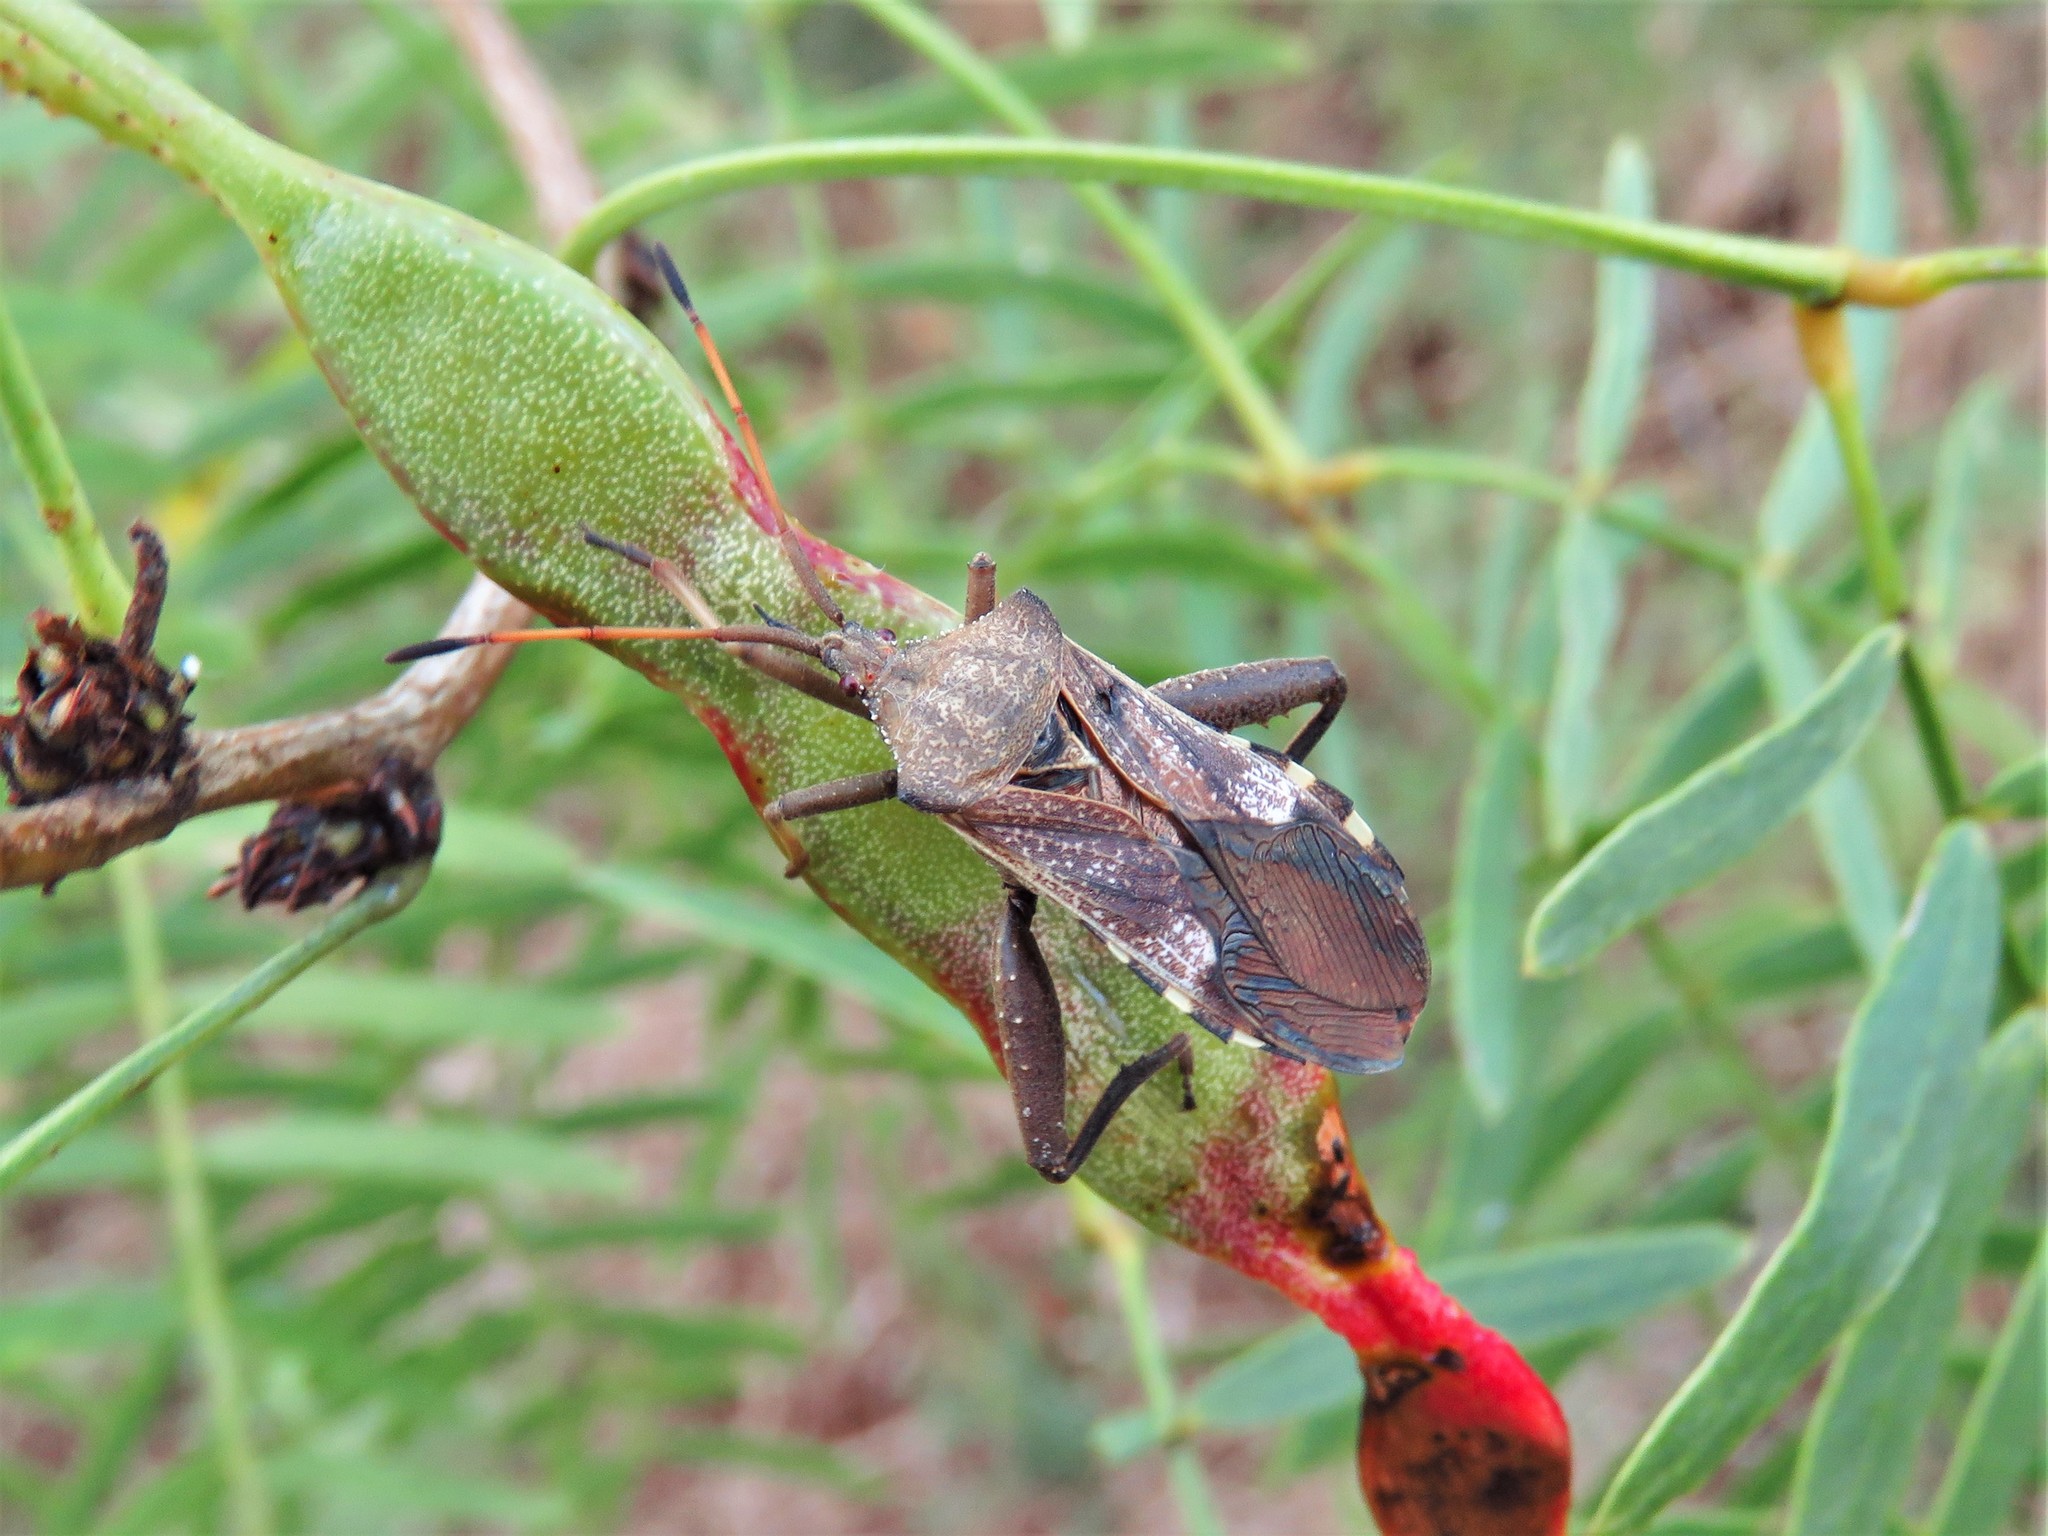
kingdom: Animalia
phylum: Arthropoda
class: Insecta
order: Hemiptera
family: Coreidae
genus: Mozena
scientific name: Mozena obtusa
